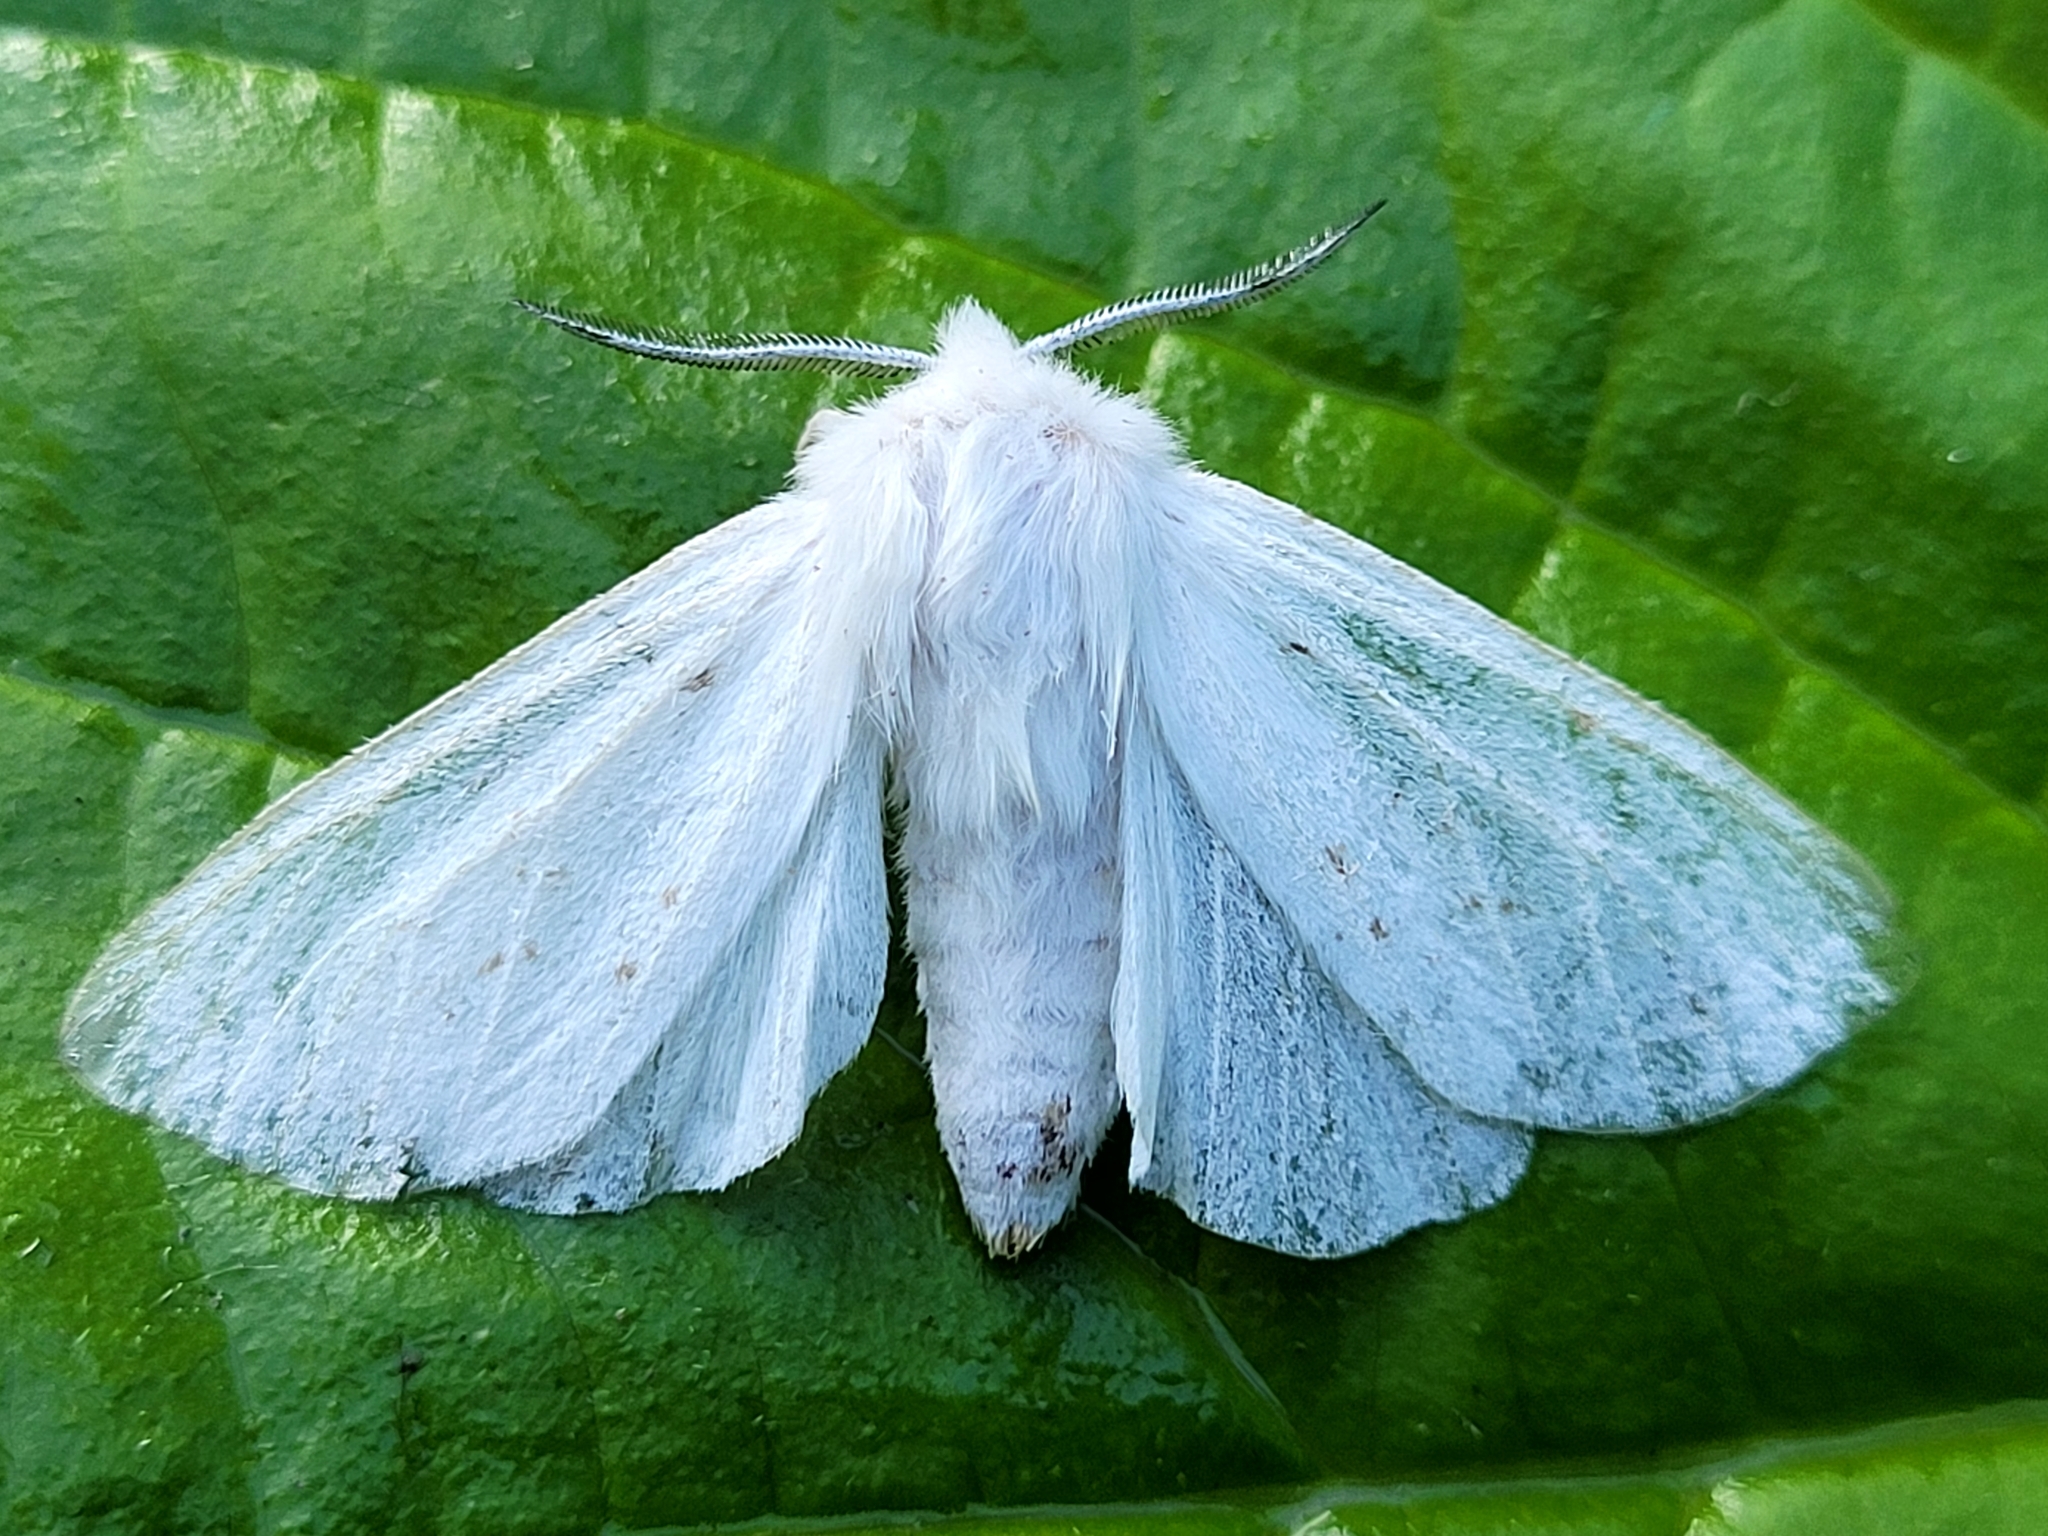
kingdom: Animalia
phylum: Arthropoda
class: Insecta
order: Lepidoptera
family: Erebidae
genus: Spilosoma
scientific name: Spilosoma congrua
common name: Agreeable tiger moth
